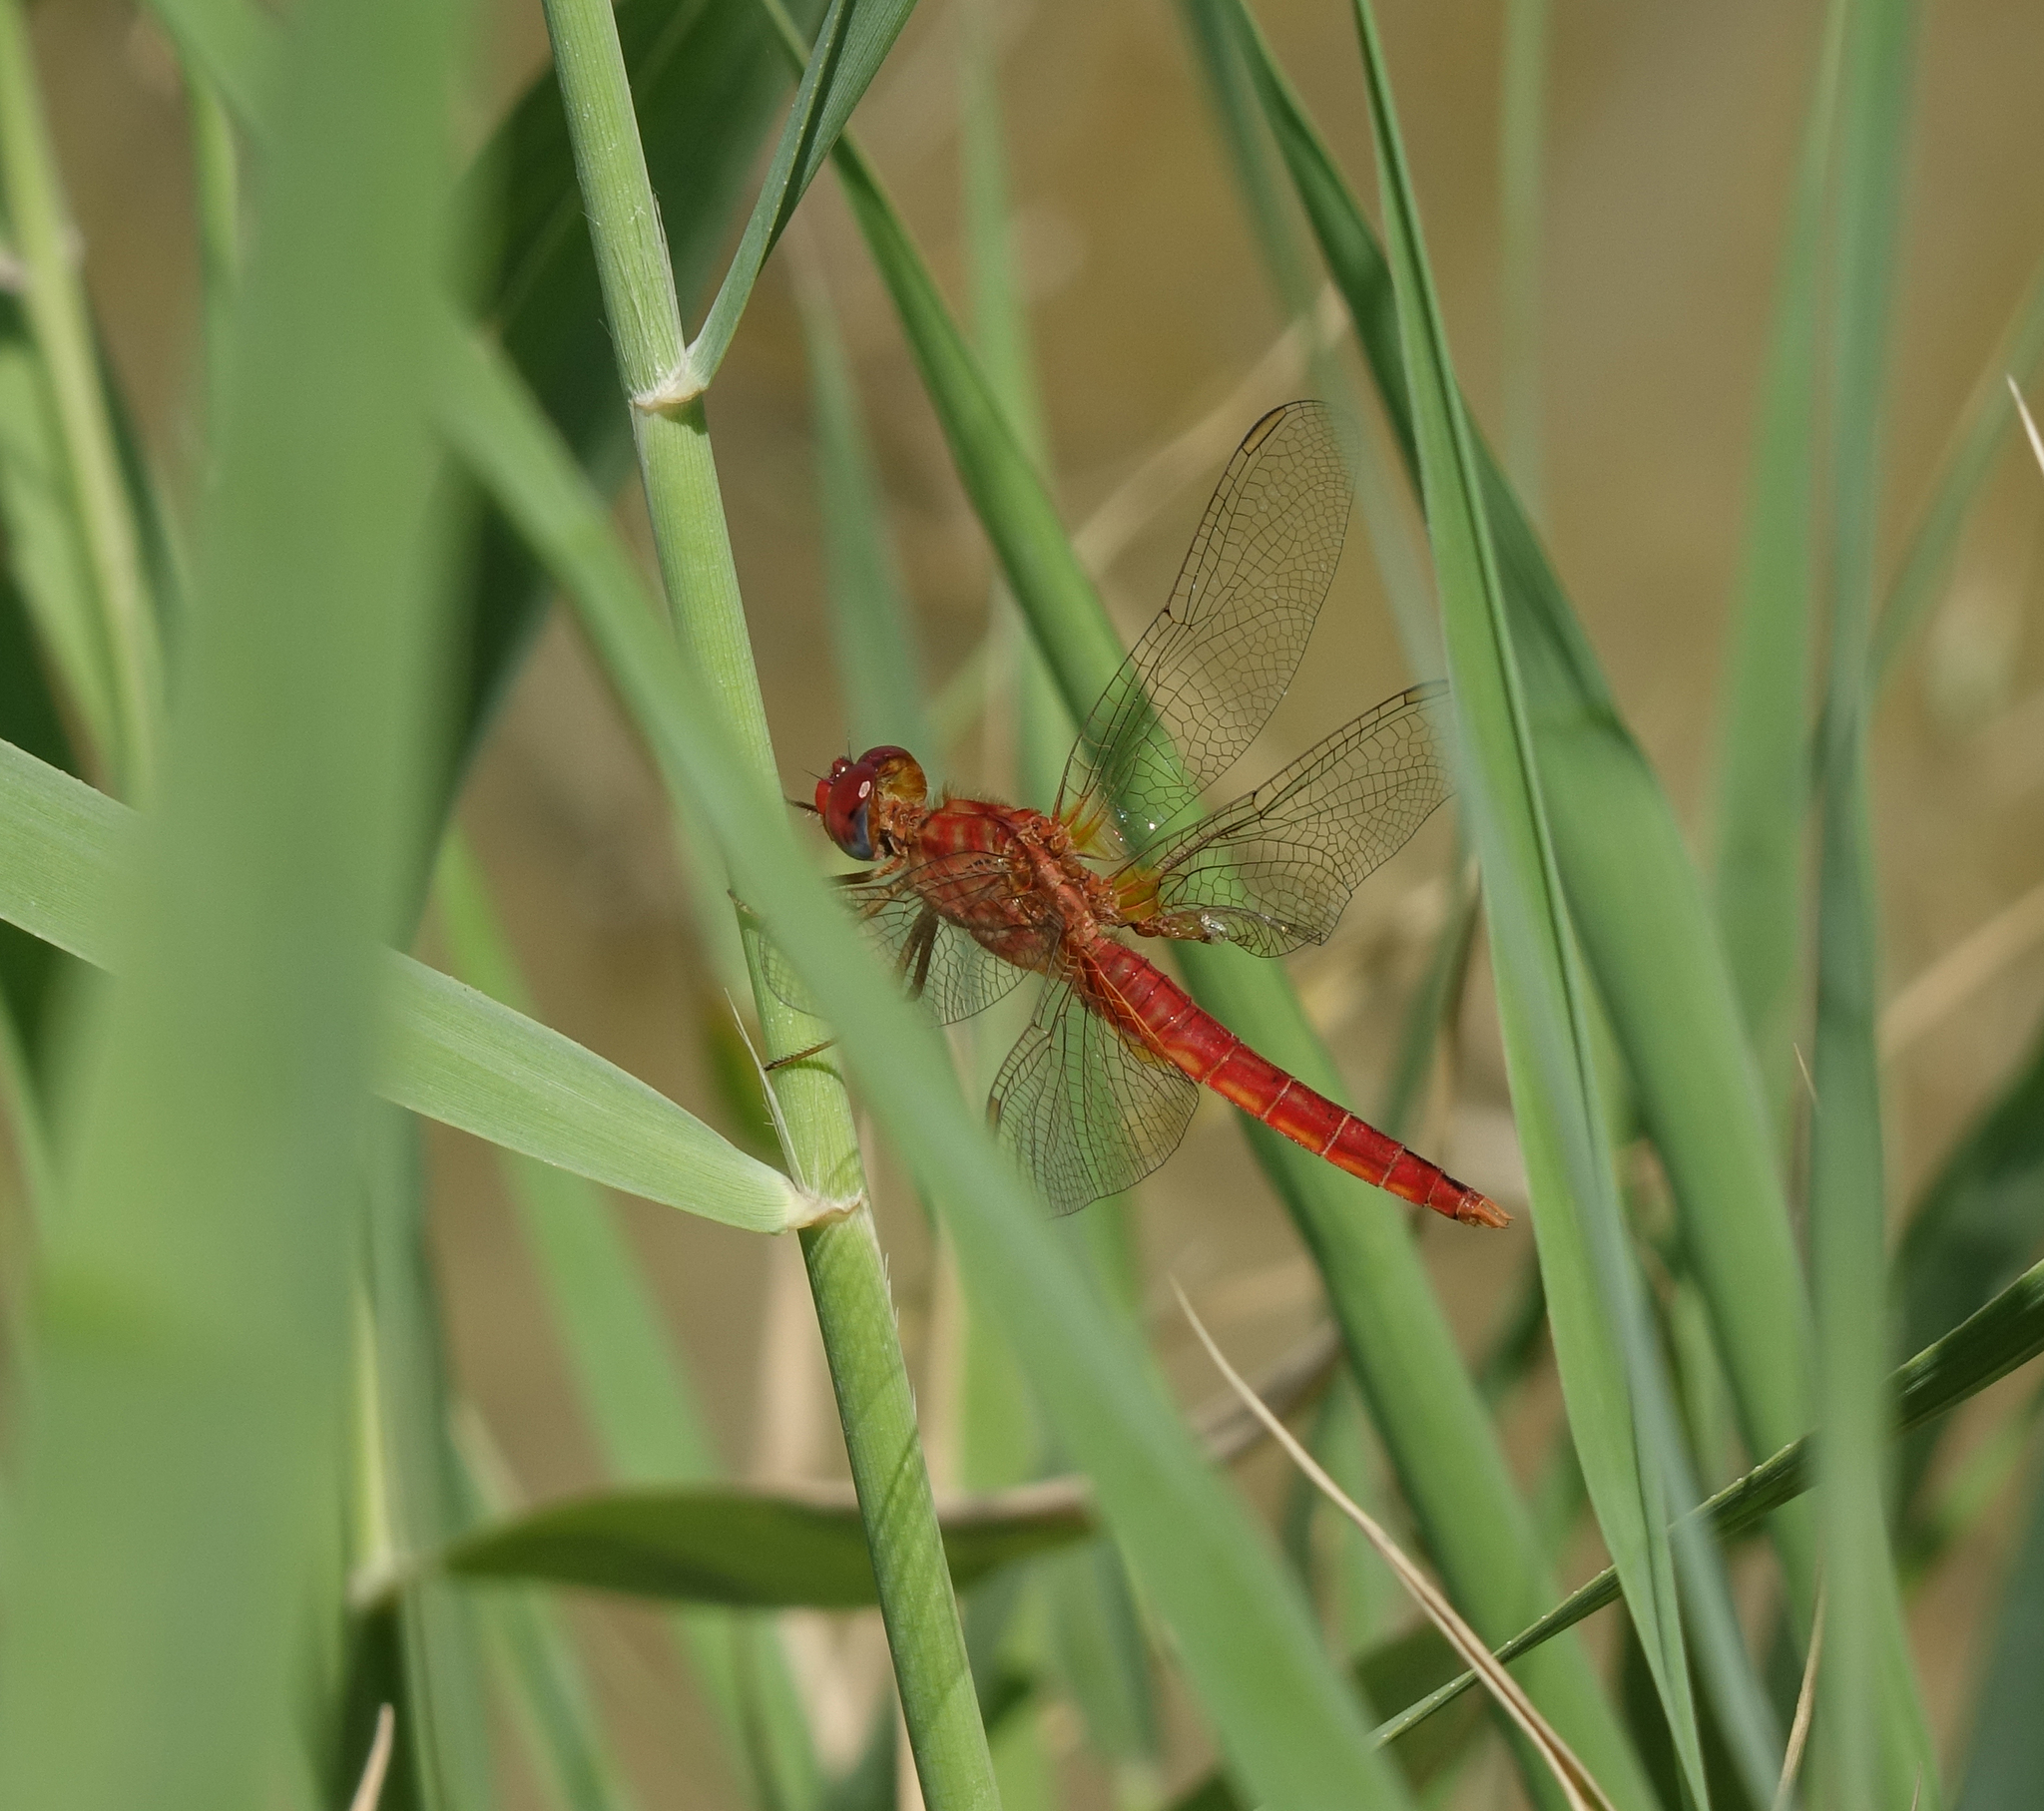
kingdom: Animalia
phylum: Arthropoda
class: Insecta
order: Odonata
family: Libellulidae
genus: Crocothemis
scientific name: Crocothemis erythraea
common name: Scarlet dragonfly
